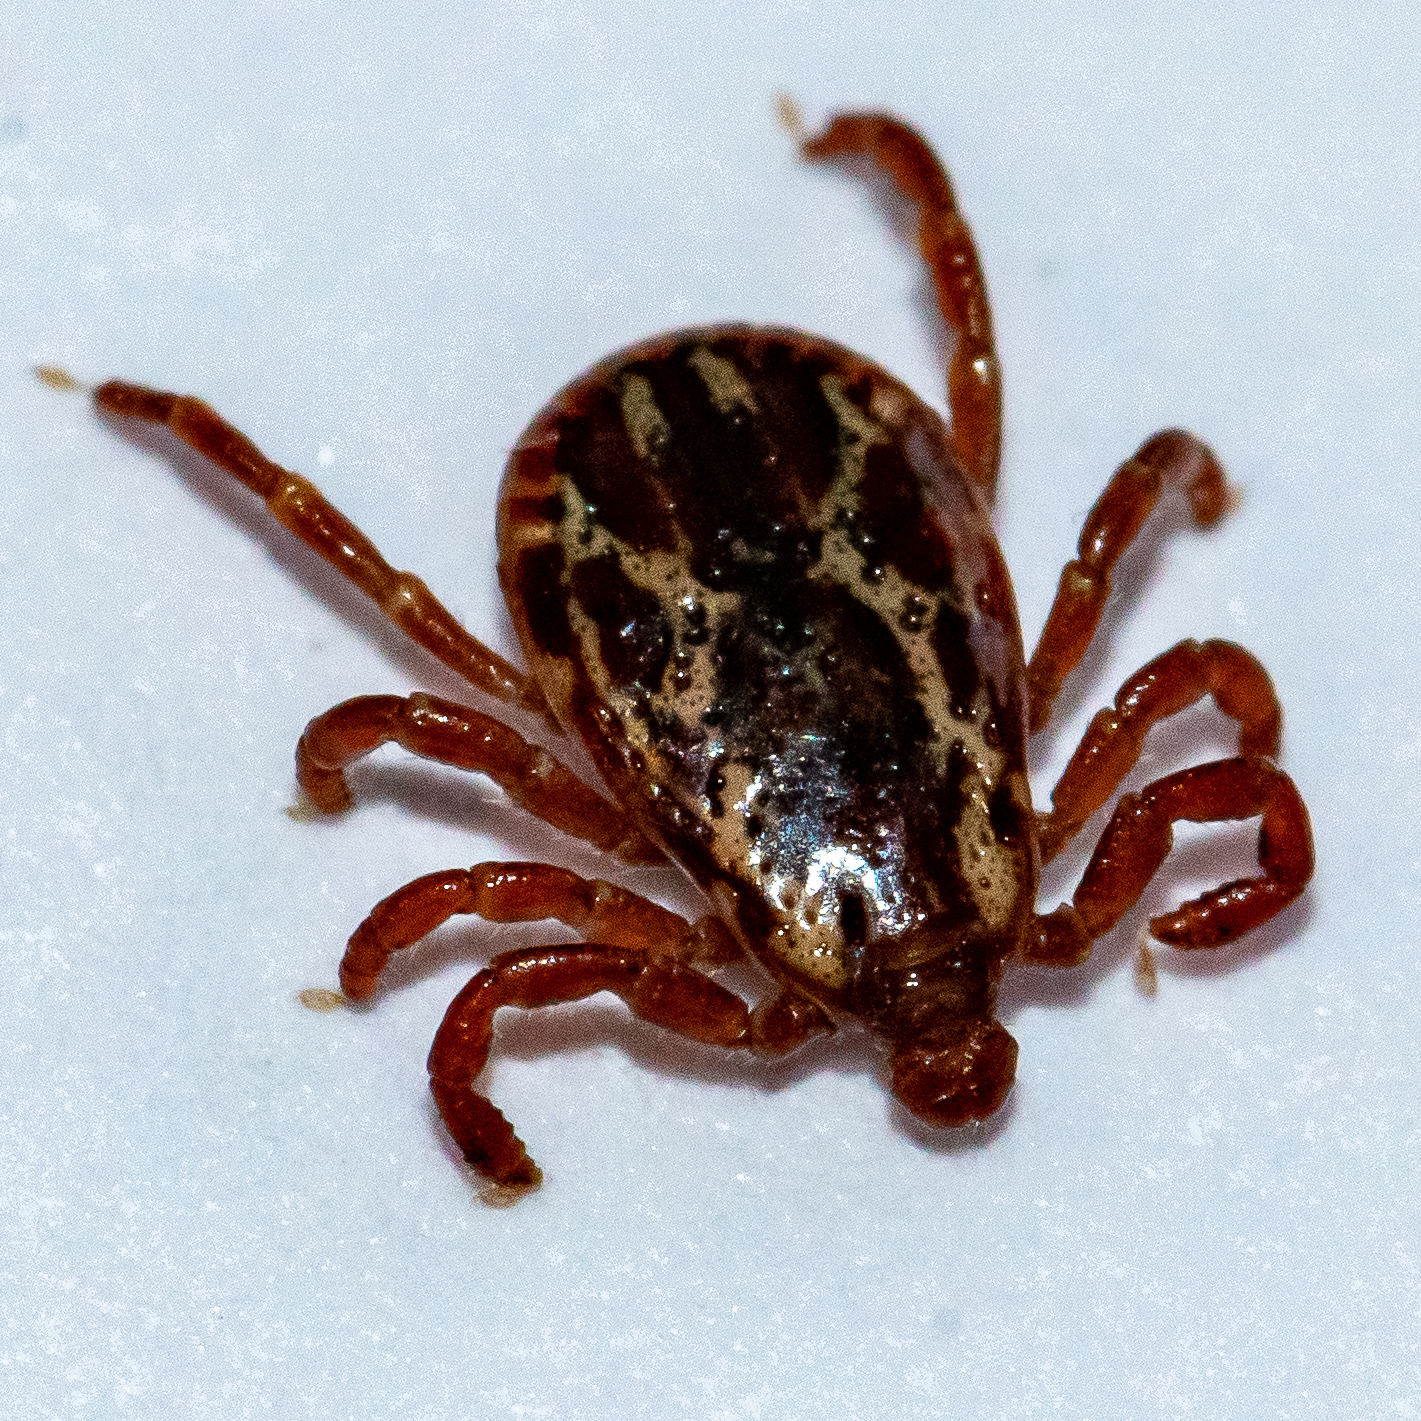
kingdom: Animalia
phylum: Arthropoda
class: Arachnida
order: Ixodida
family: Ixodidae
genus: Dermacentor
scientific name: Dermacentor variabilis
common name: American dog tick
